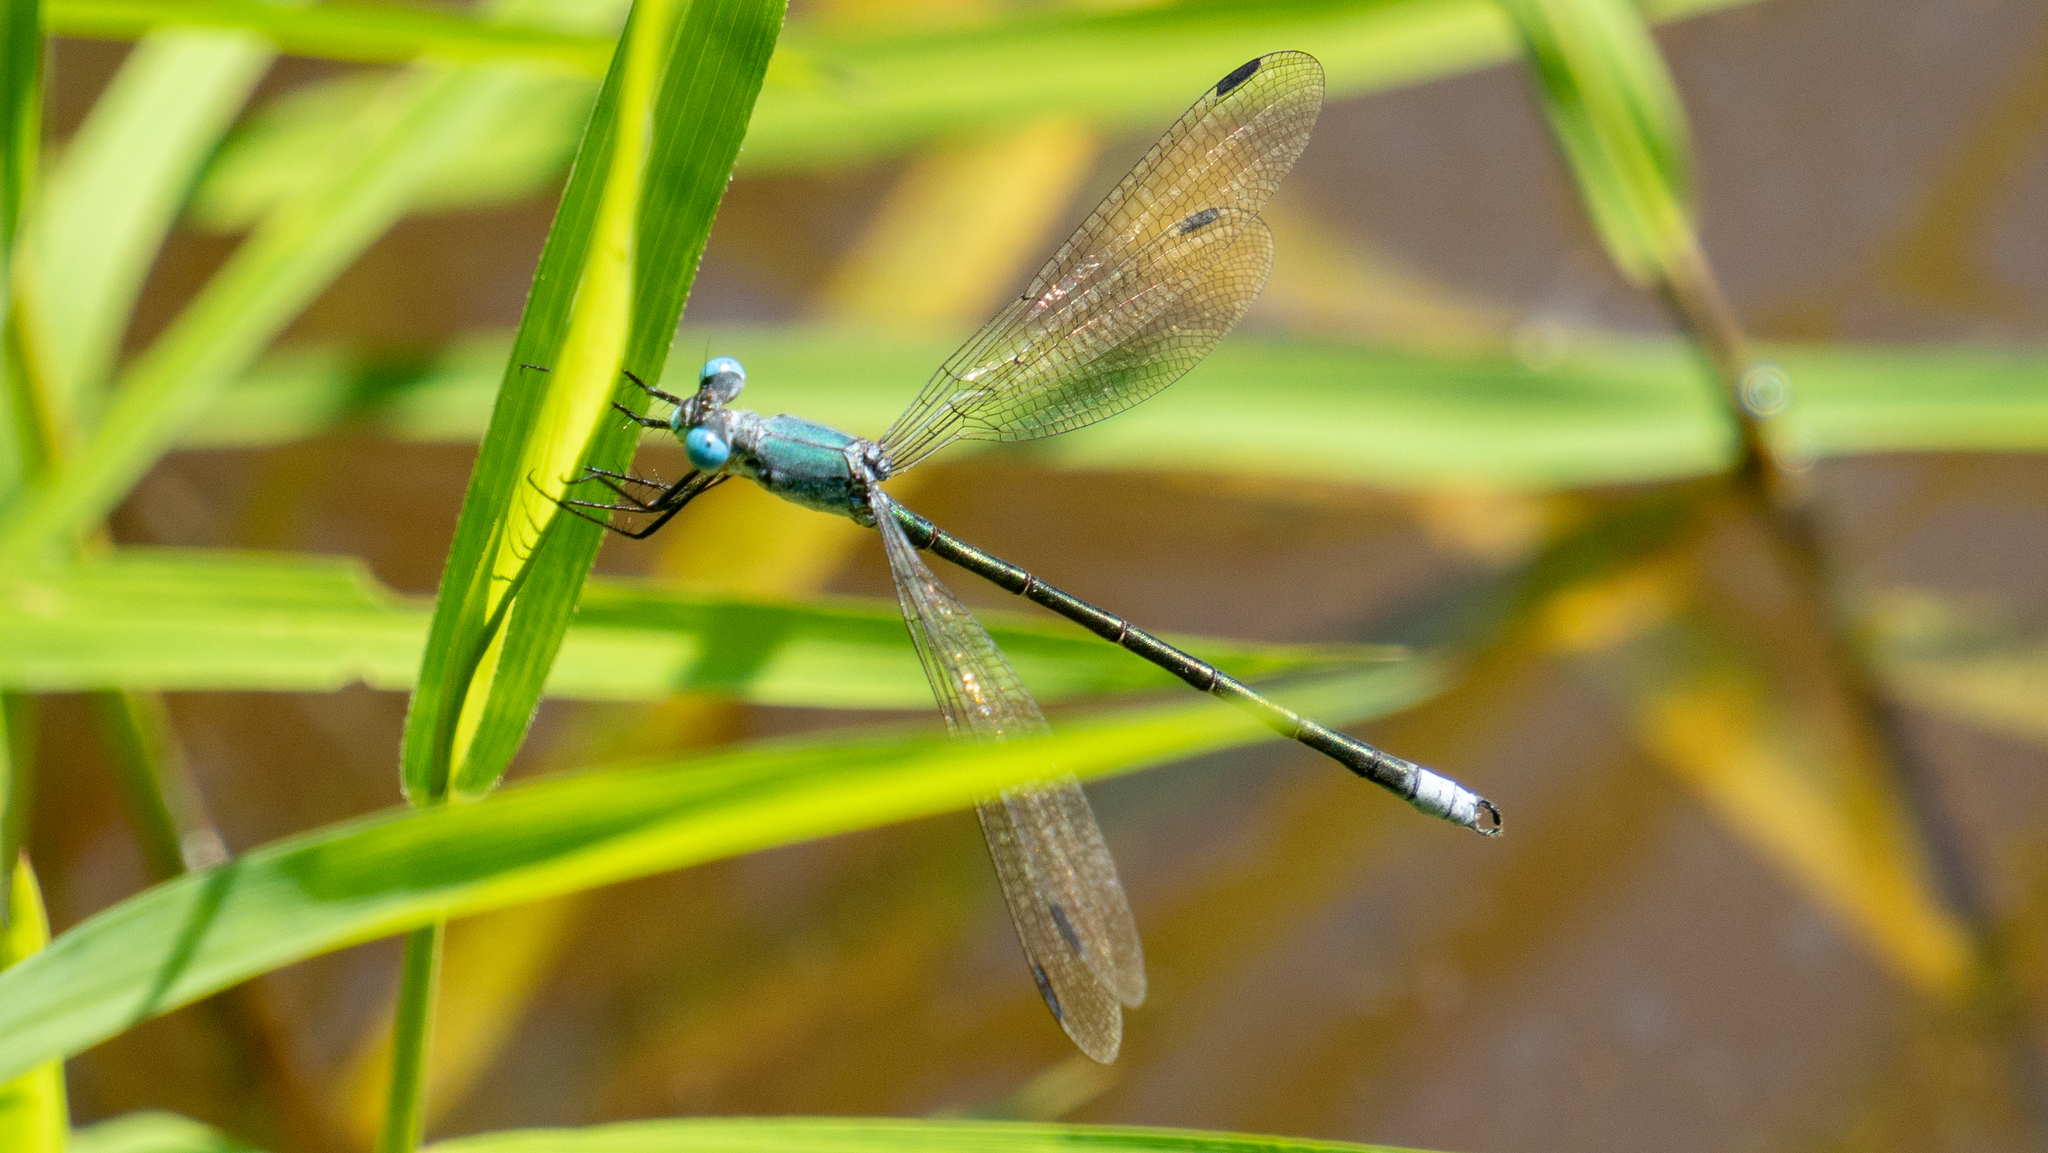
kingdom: Animalia
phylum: Arthropoda
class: Insecta
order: Odonata
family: Lestidae
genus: Lestes
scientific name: Lestes eurinus
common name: Amber-winged spreadwing
